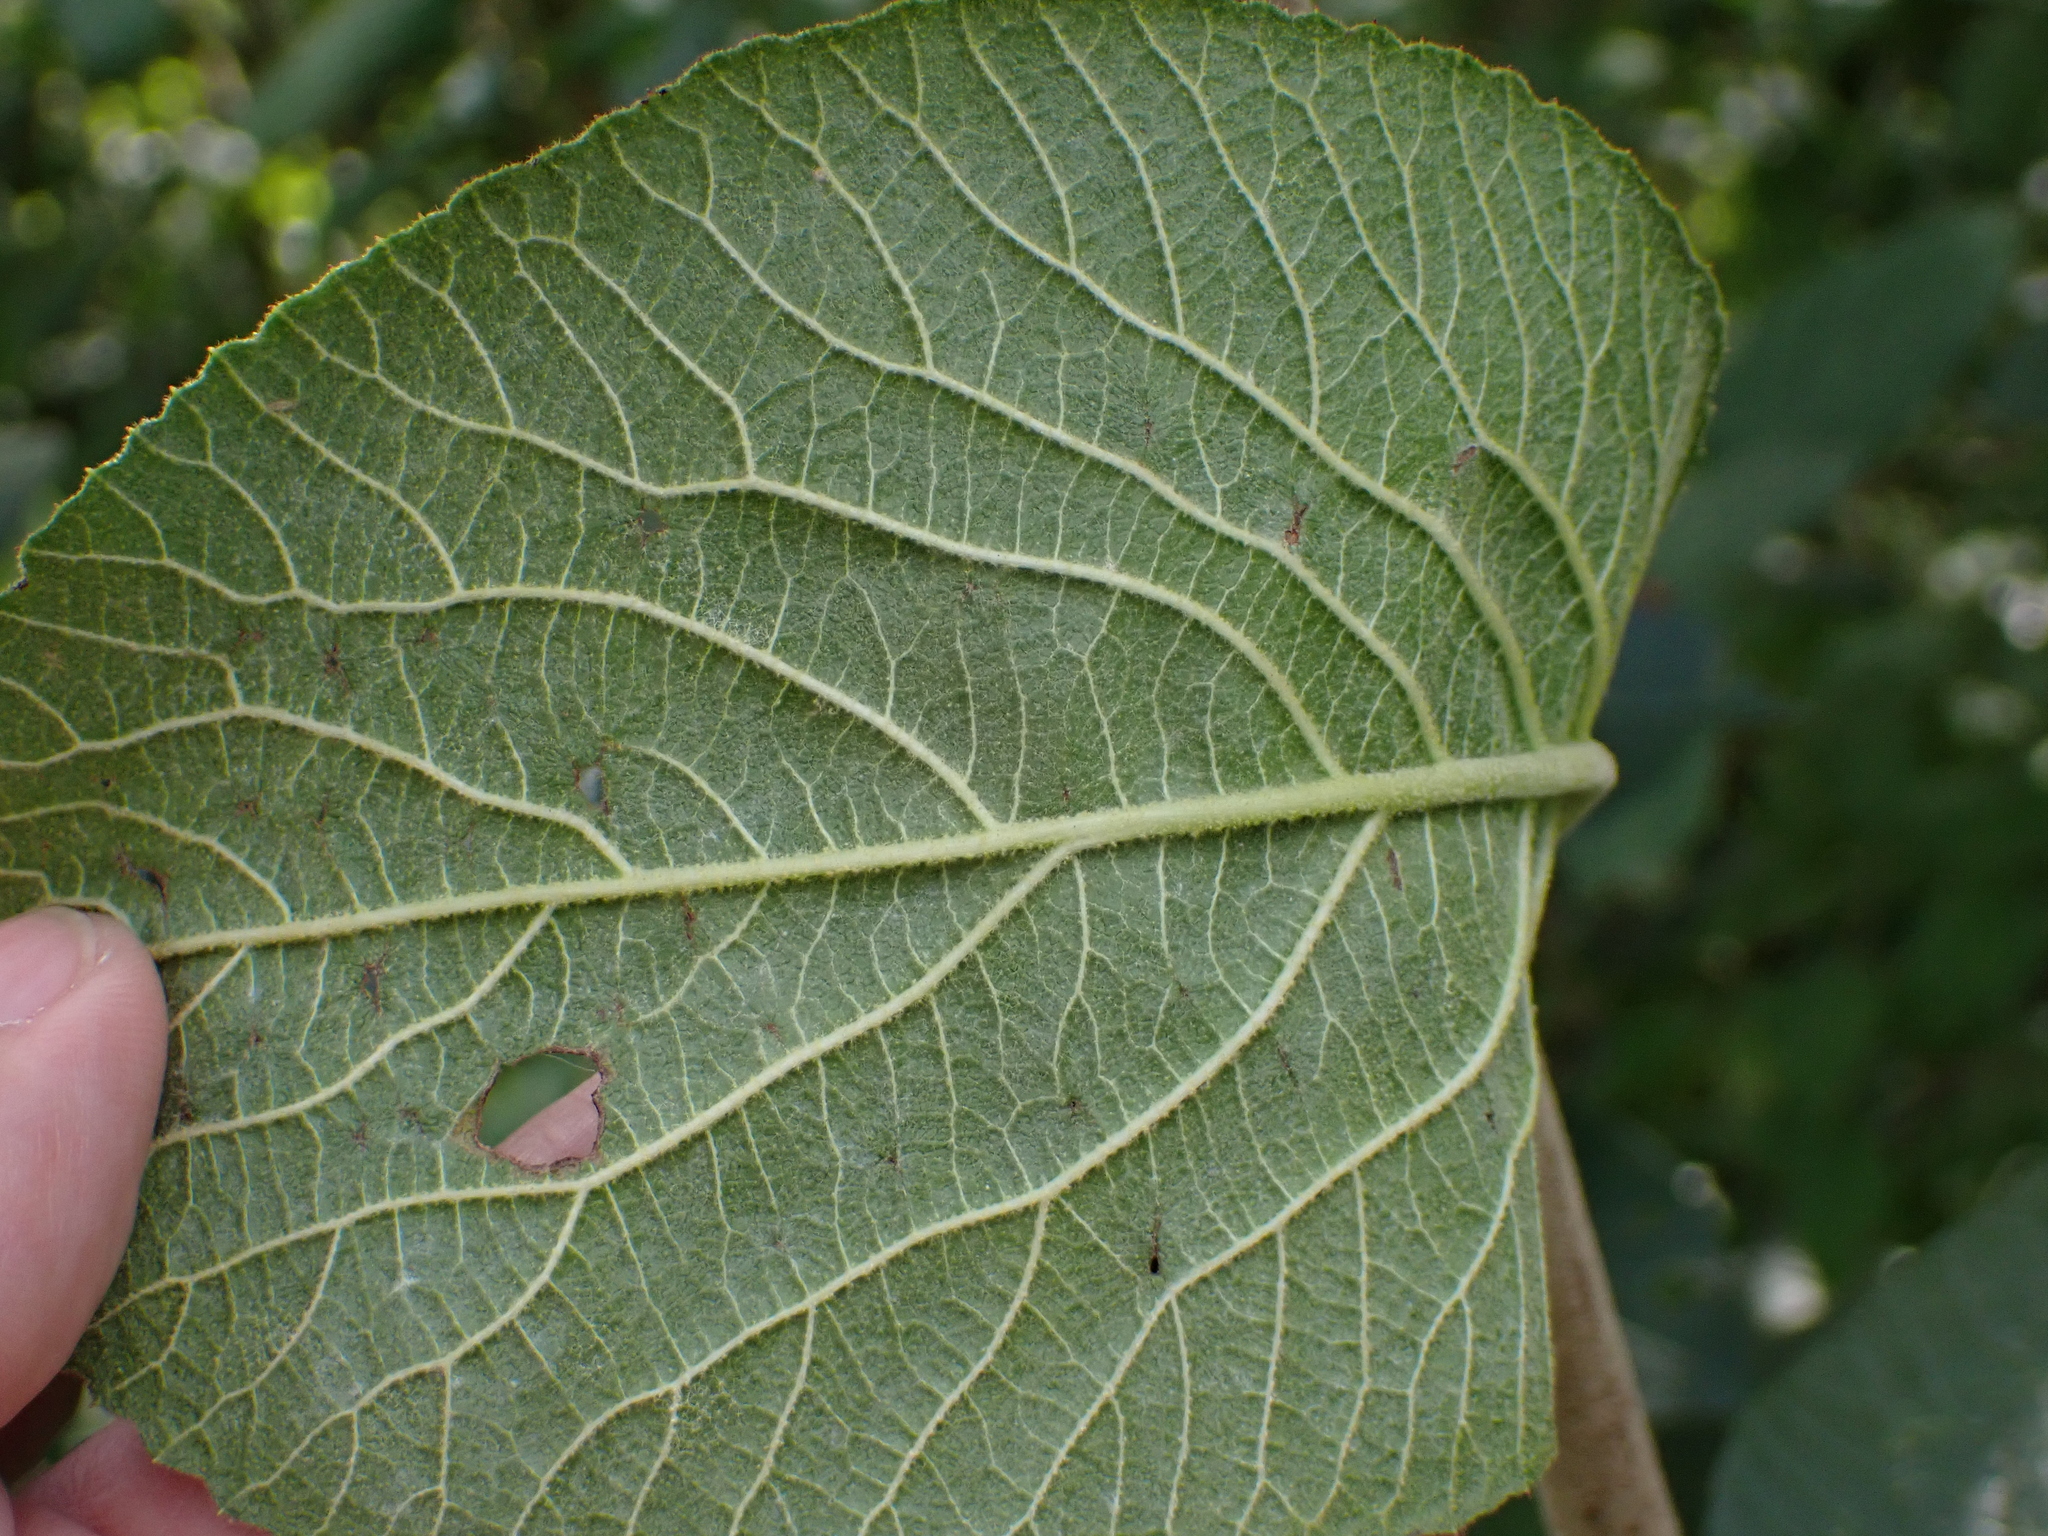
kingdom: Plantae
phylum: Tracheophyta
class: Magnoliopsida
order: Dipsacales
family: Viburnaceae
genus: Viburnum
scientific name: Viburnum lantana
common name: Wayfaring tree
